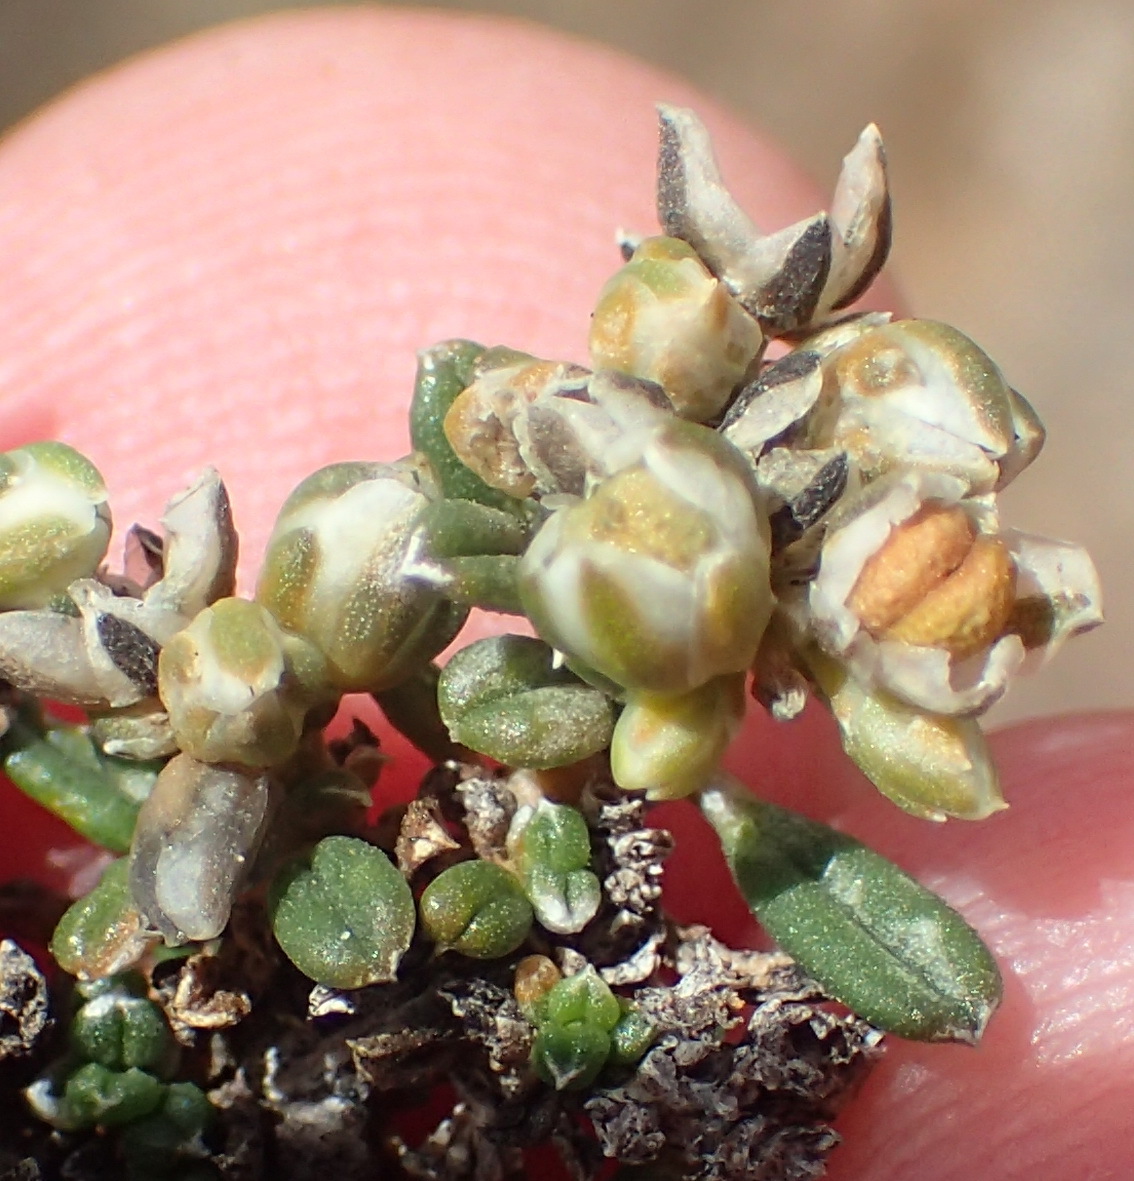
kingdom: Plantae
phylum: Tracheophyta
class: Magnoliopsida
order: Caryophyllales
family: Limeaceae
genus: Limeum
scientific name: Limeum aethiopicum
